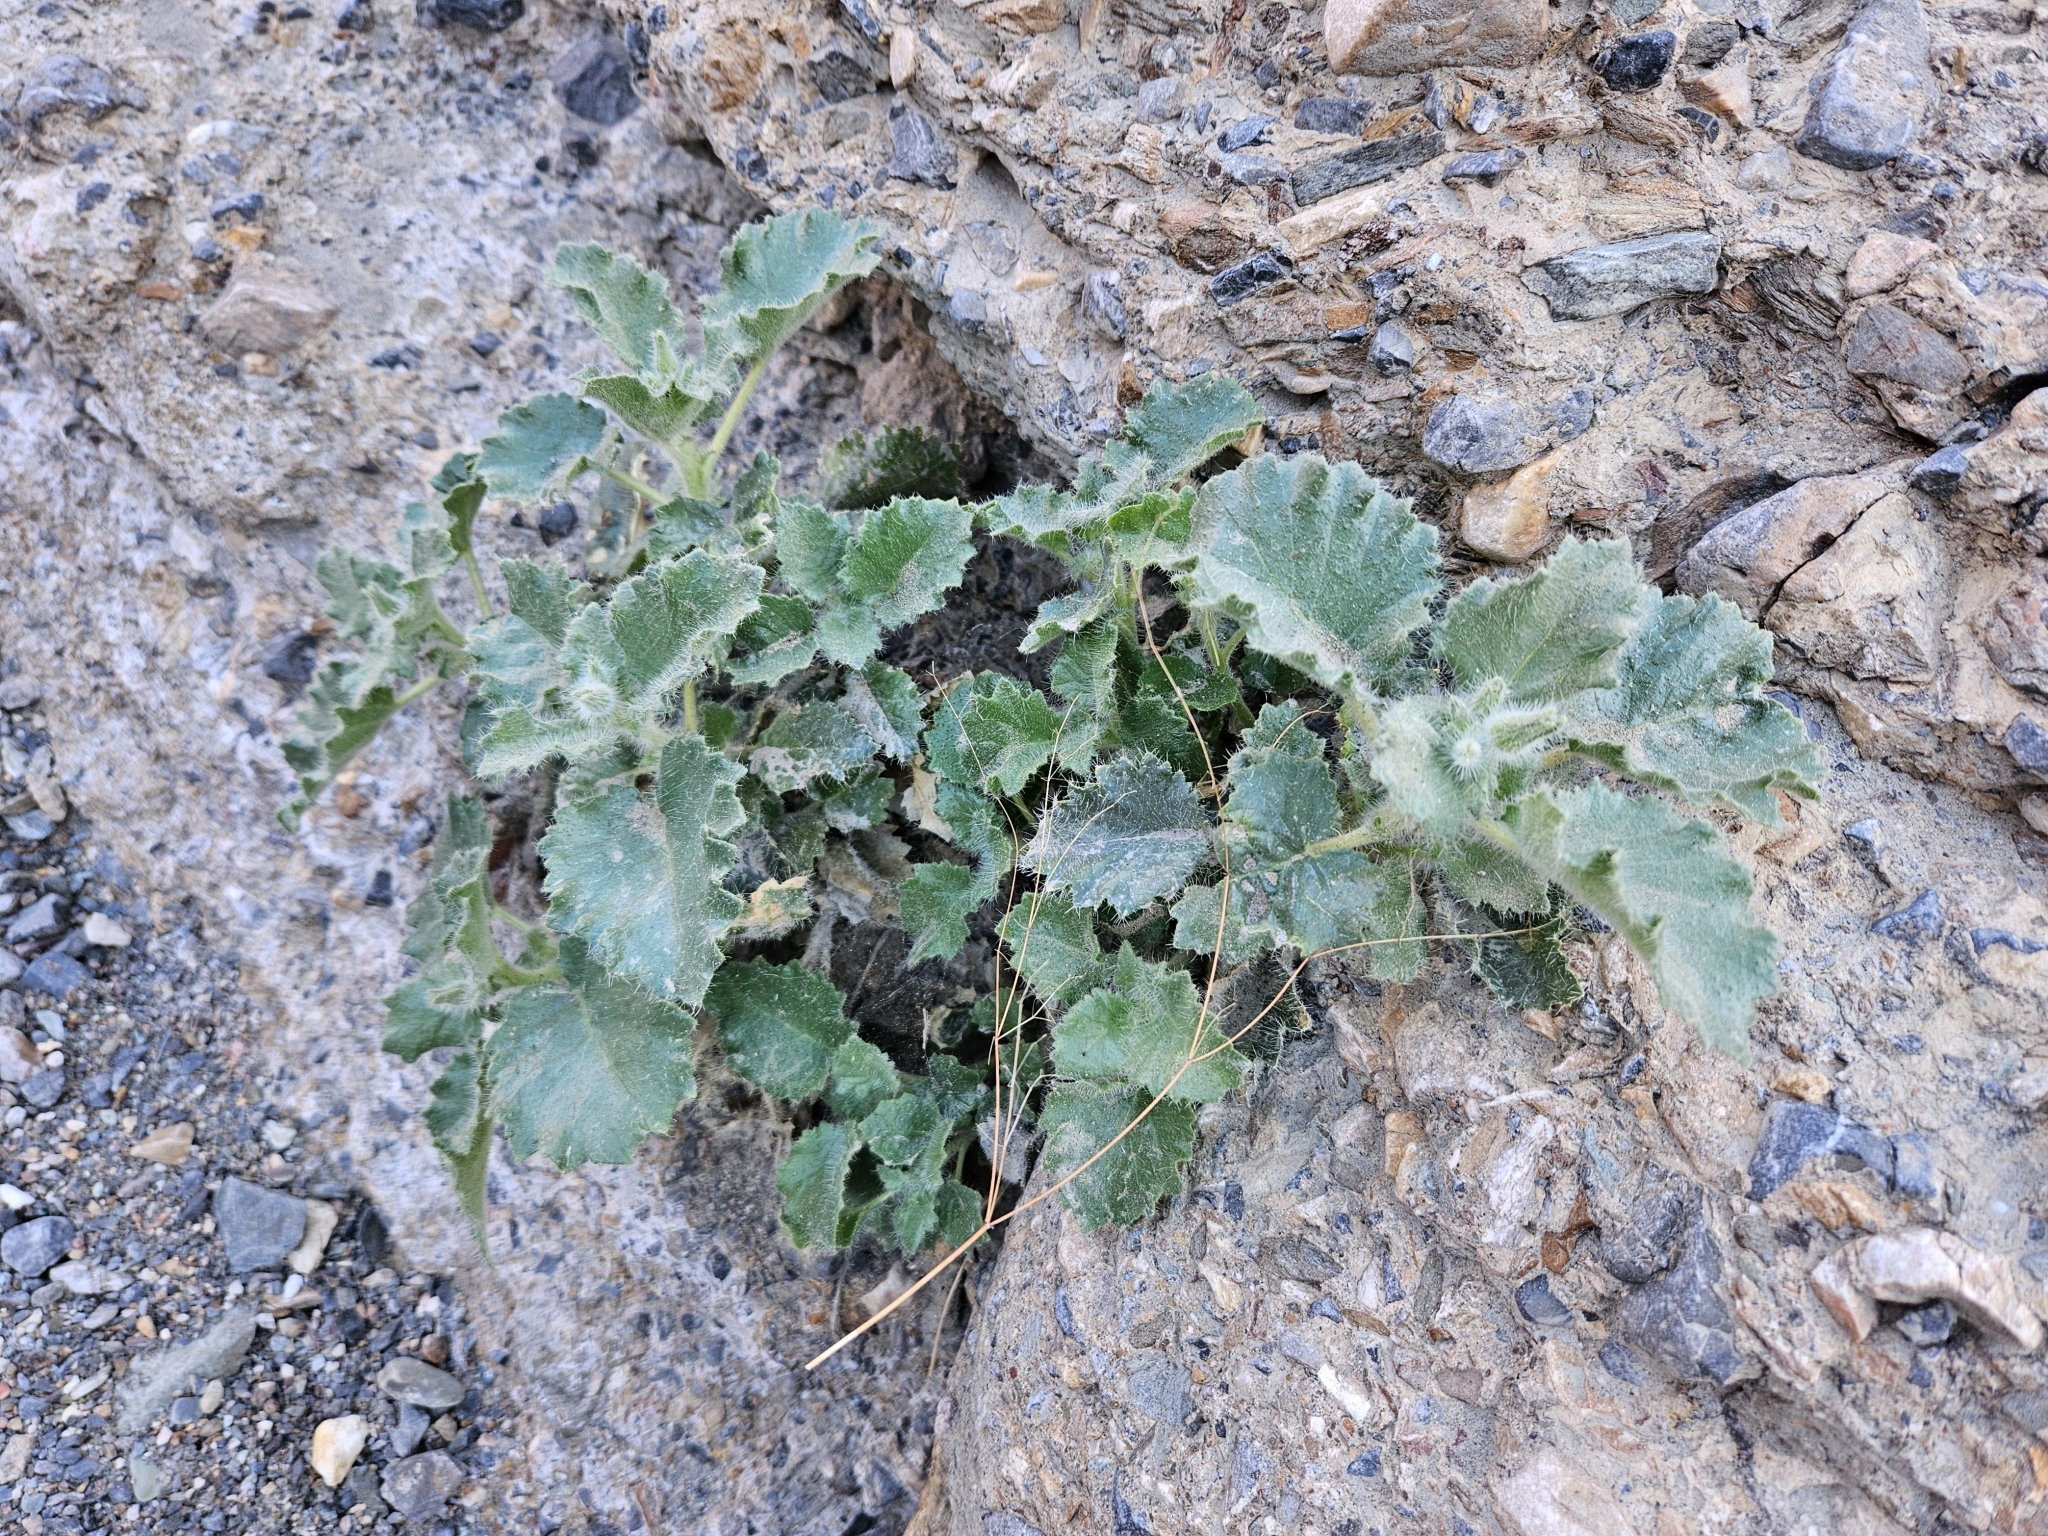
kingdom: Plantae
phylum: Tracheophyta
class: Magnoliopsida
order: Cornales
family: Loasaceae
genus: Eucnide
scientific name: Eucnide urens
